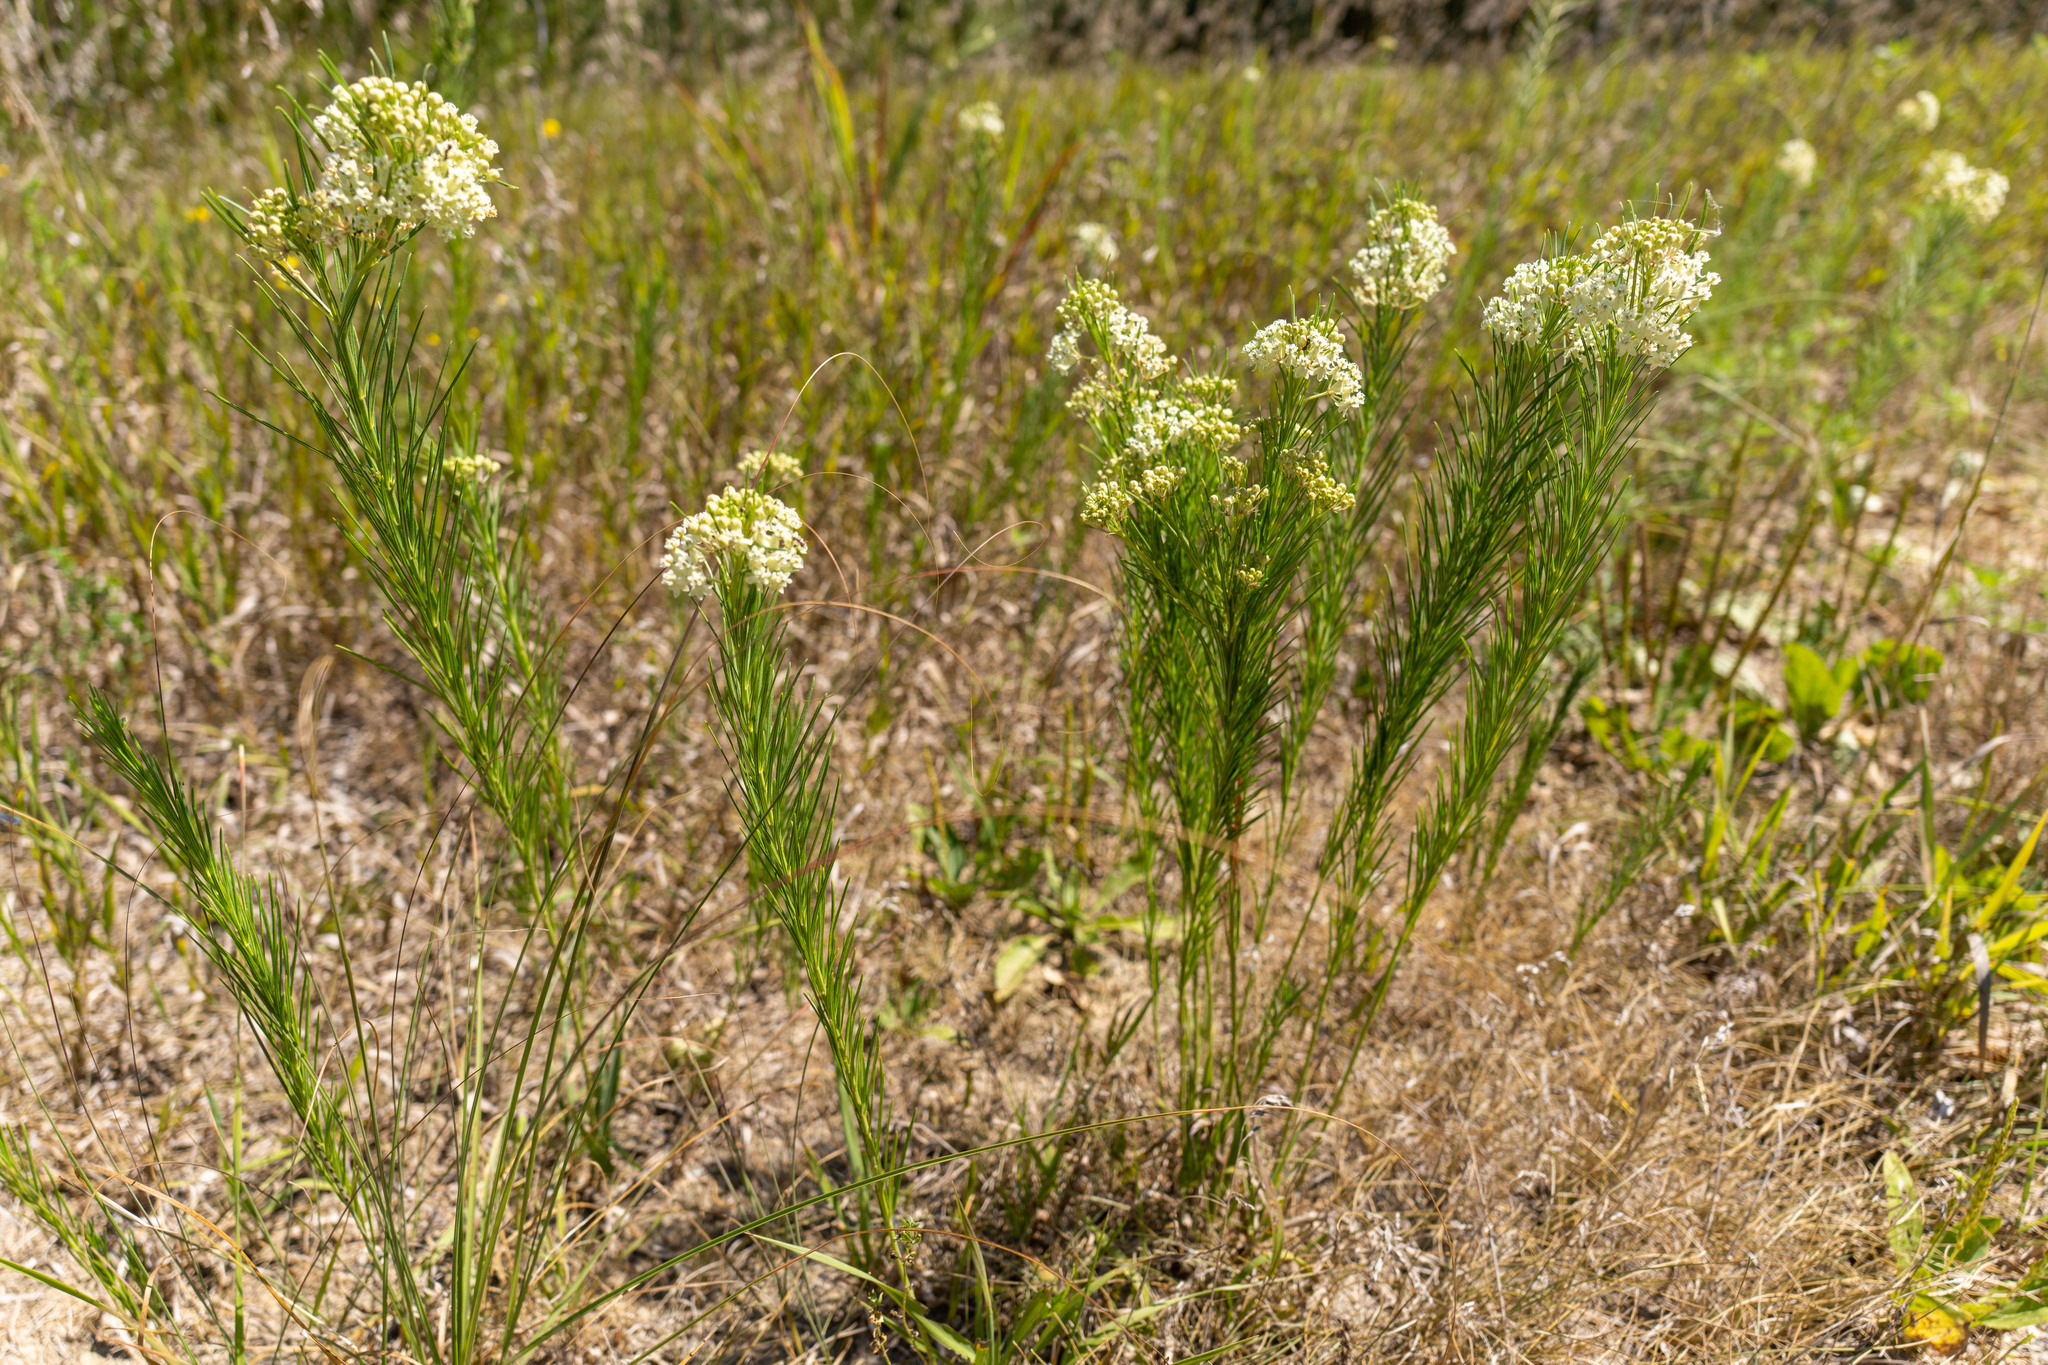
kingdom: Plantae
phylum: Tracheophyta
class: Magnoliopsida
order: Gentianales
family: Apocynaceae
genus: Asclepias
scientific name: Asclepias verticillata
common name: Eastern whorled milkweed
